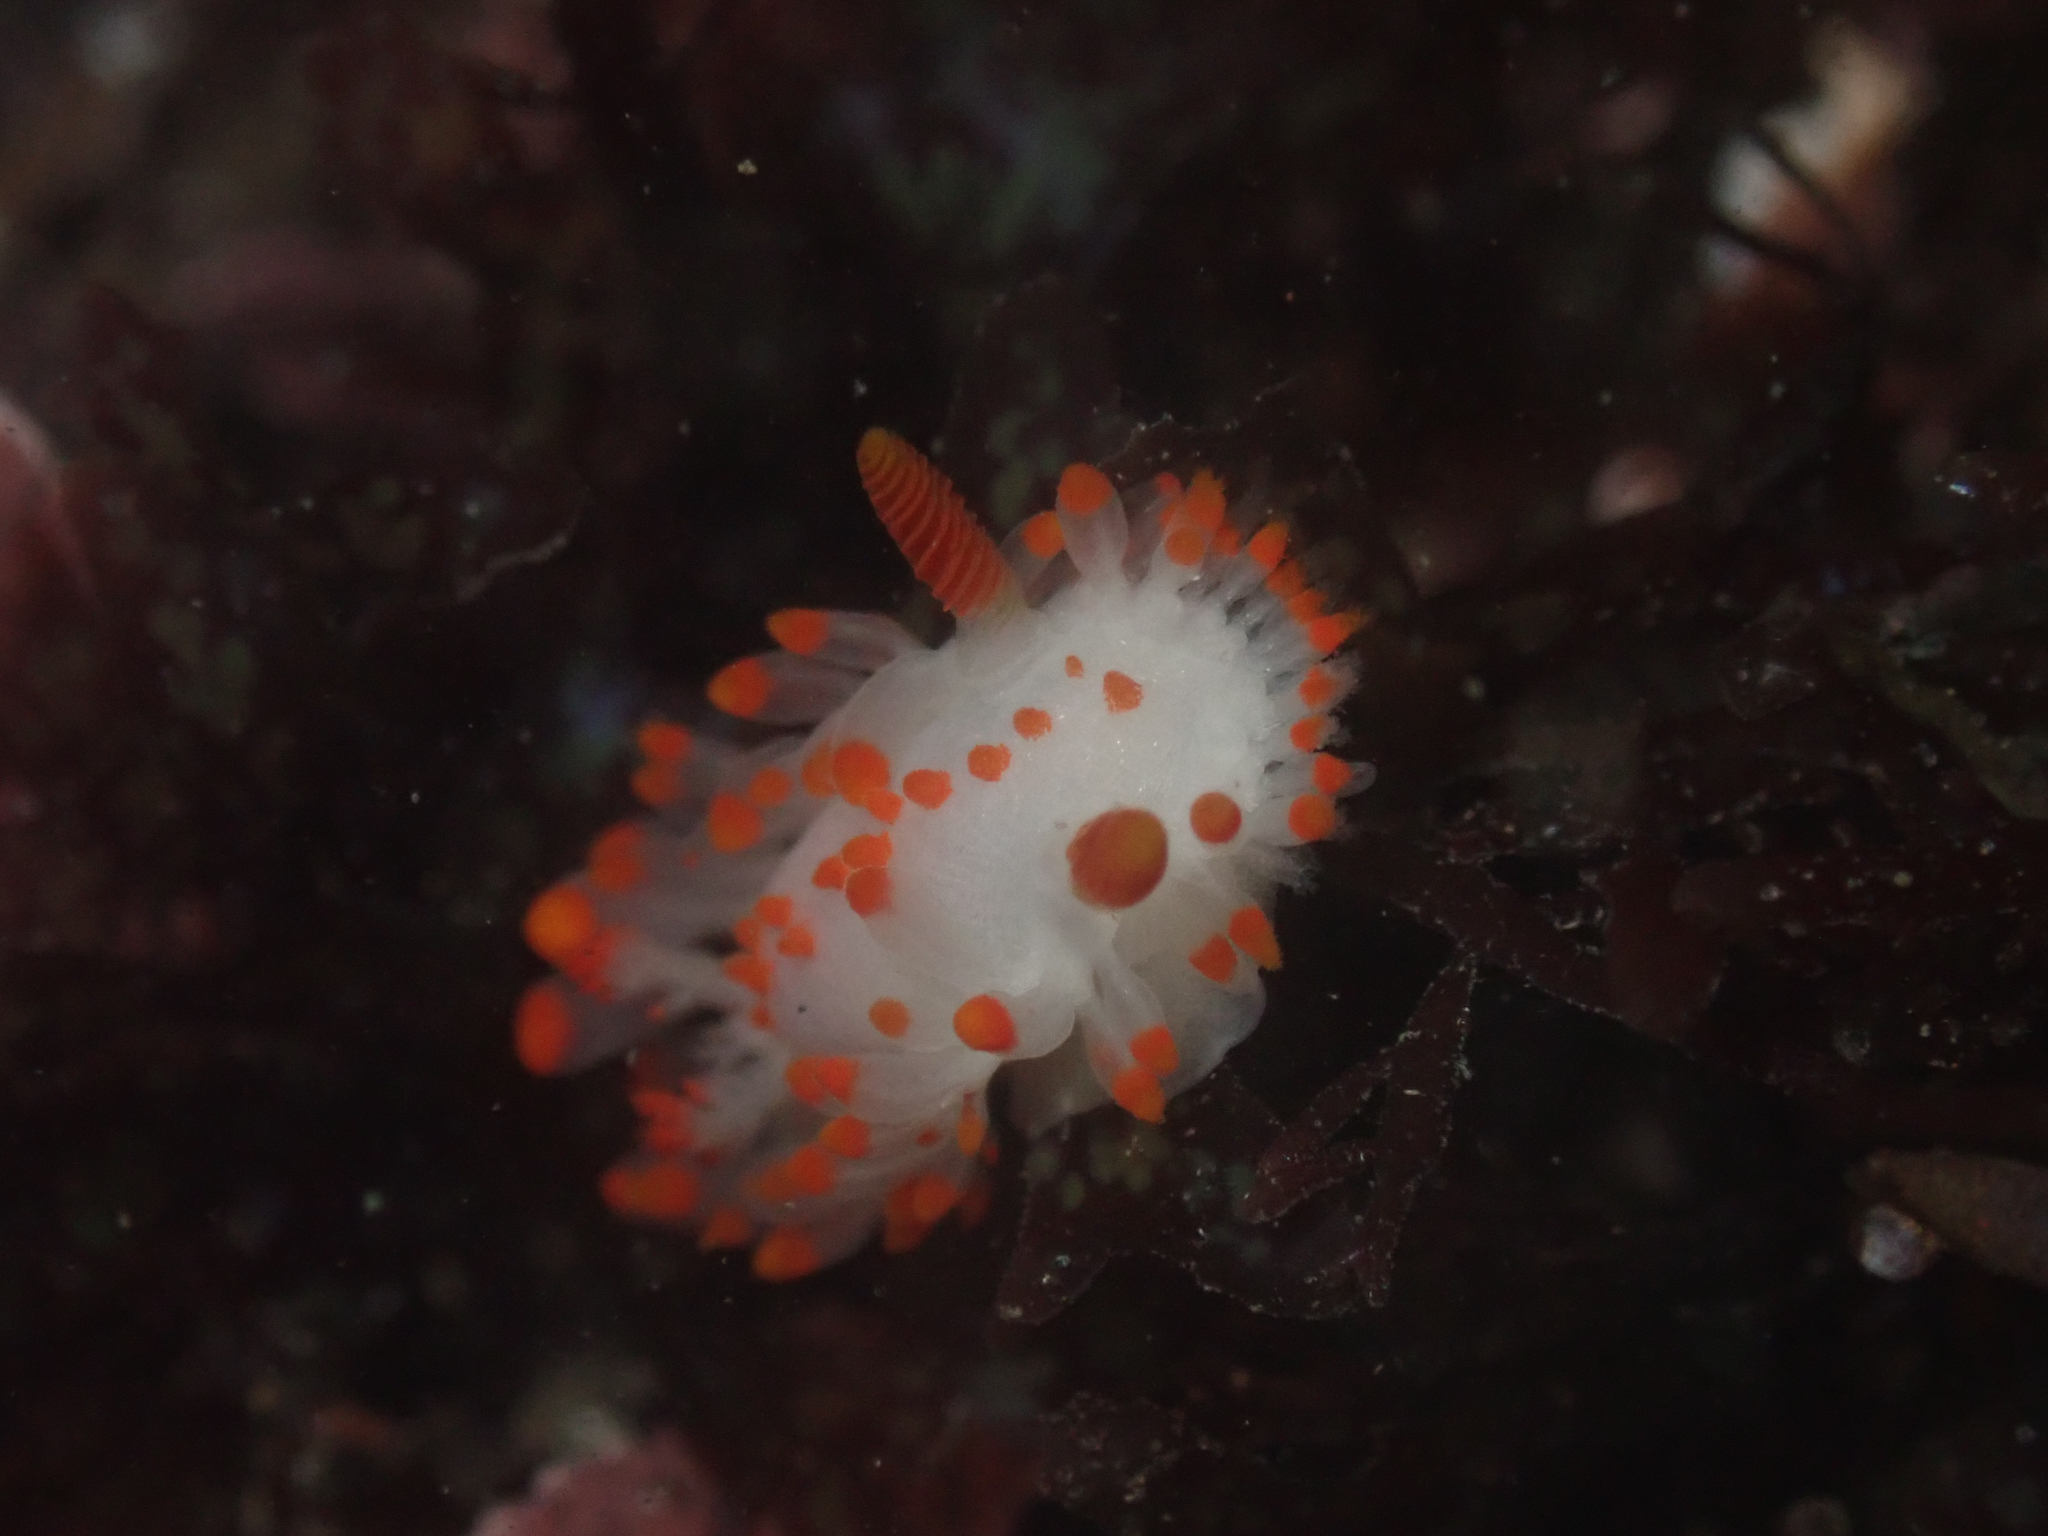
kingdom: Animalia
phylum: Mollusca
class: Gastropoda
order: Nudibranchia
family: Polyceridae
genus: Limacia
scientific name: Limacia mcdonaldi
